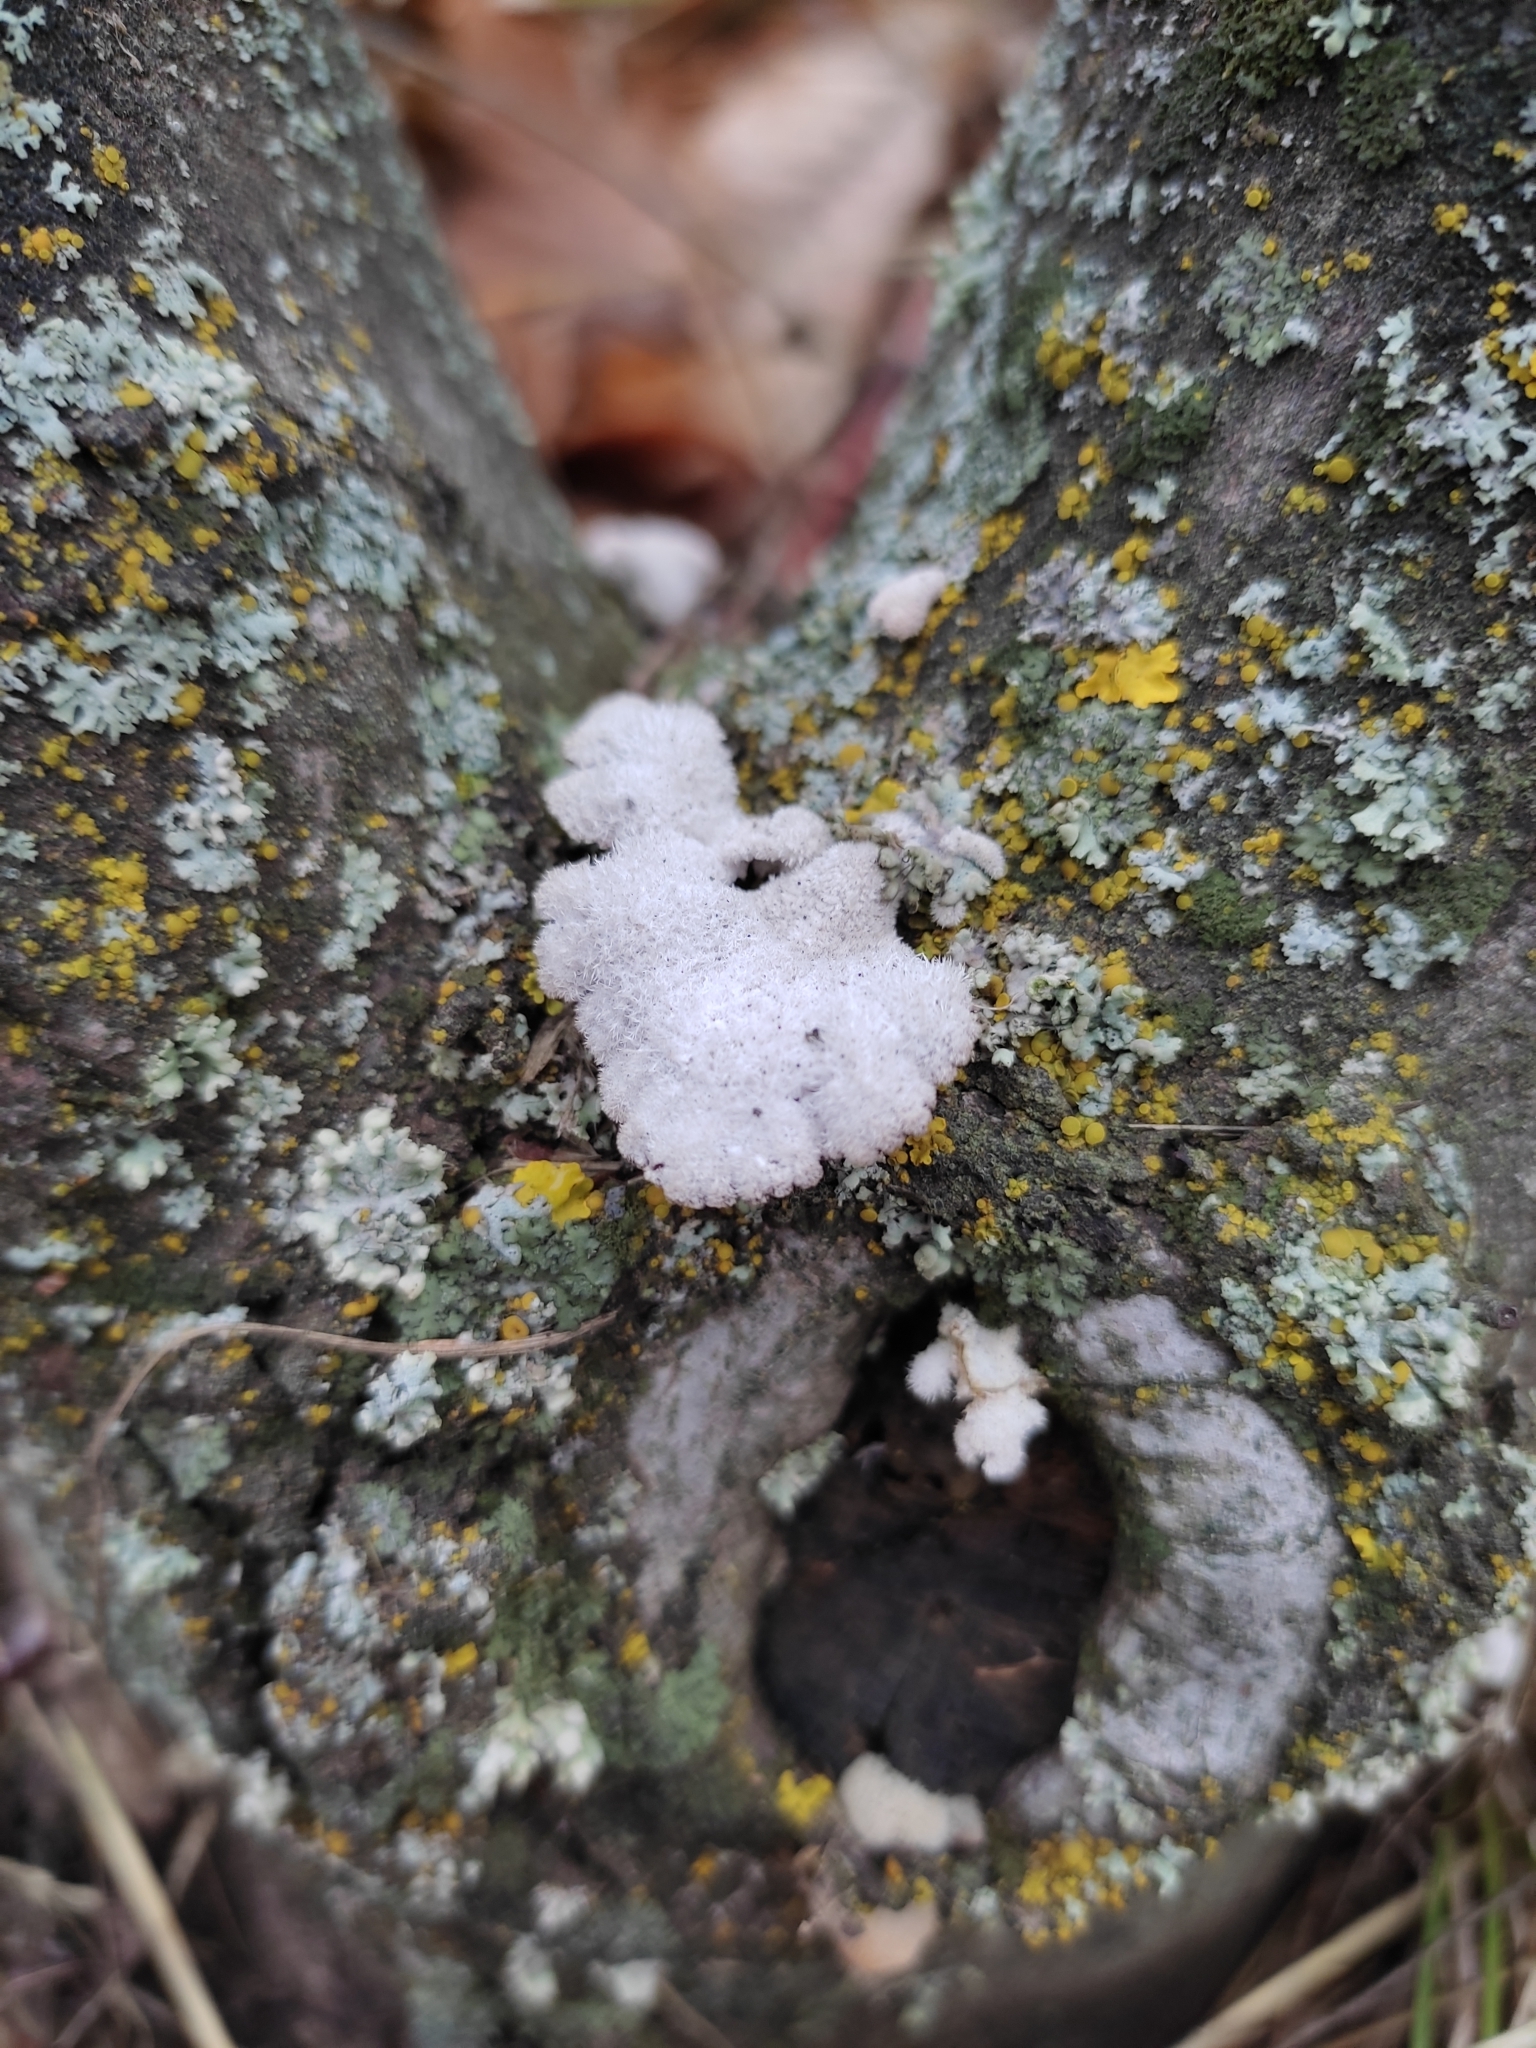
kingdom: Fungi
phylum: Basidiomycota
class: Agaricomycetes
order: Agaricales
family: Schizophyllaceae
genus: Schizophyllum
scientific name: Schizophyllum commune
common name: Common porecrust
